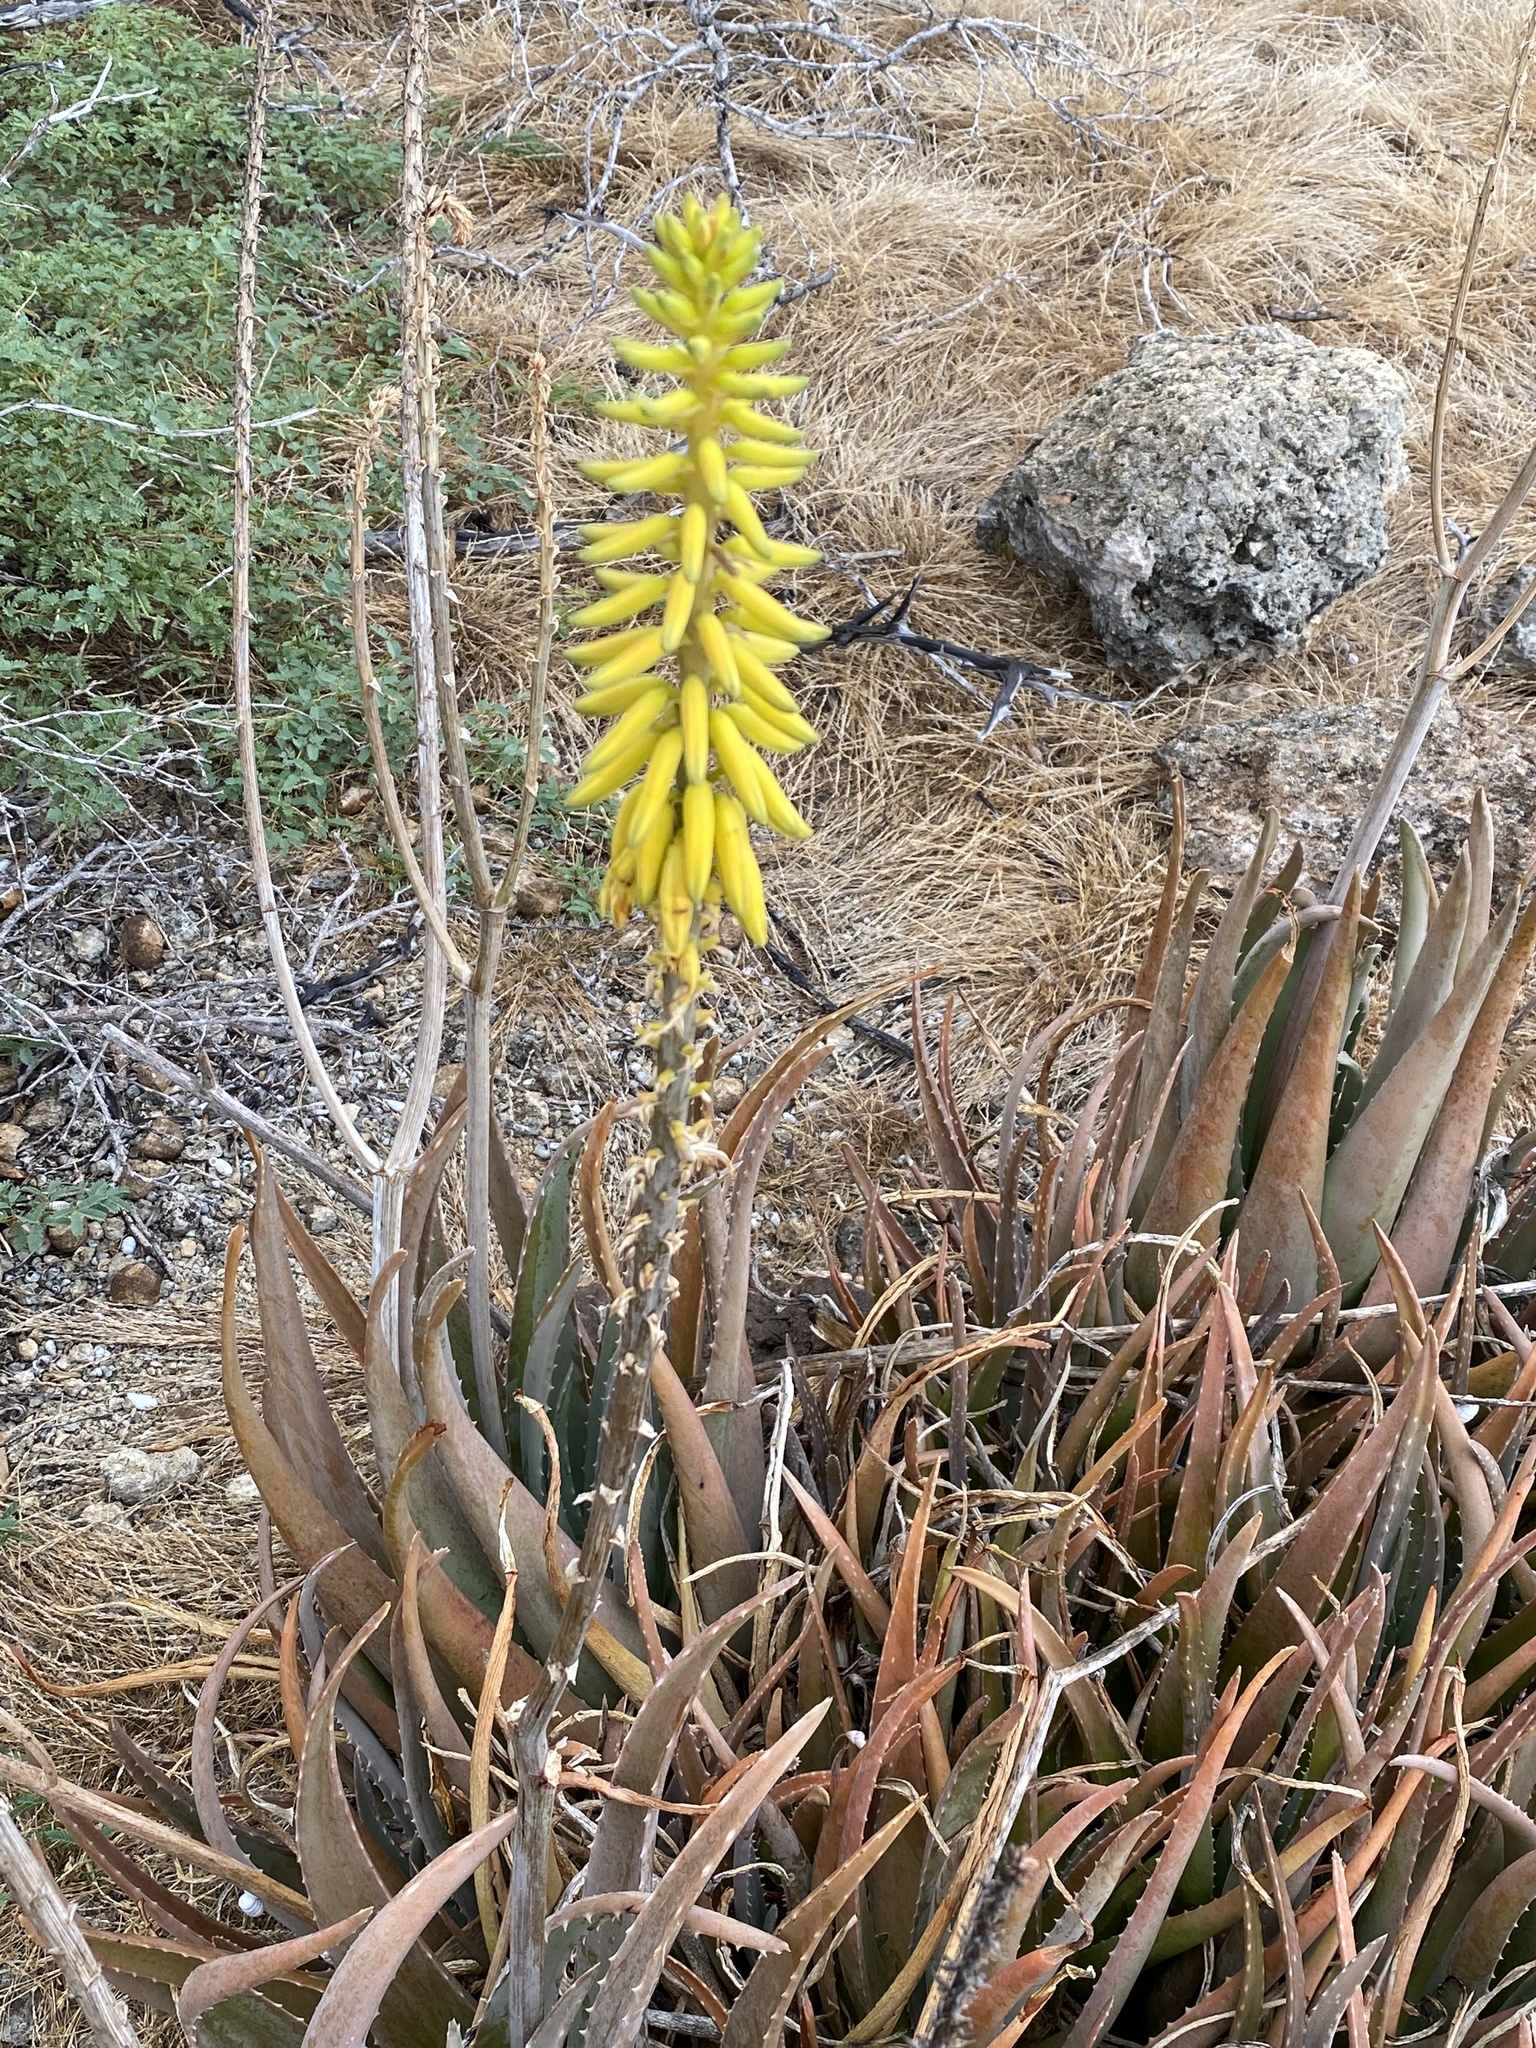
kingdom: Plantae
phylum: Tracheophyta
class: Liliopsida
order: Asparagales
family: Asphodelaceae
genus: Aloe
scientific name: Aloe vera
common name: Barbados aloe
